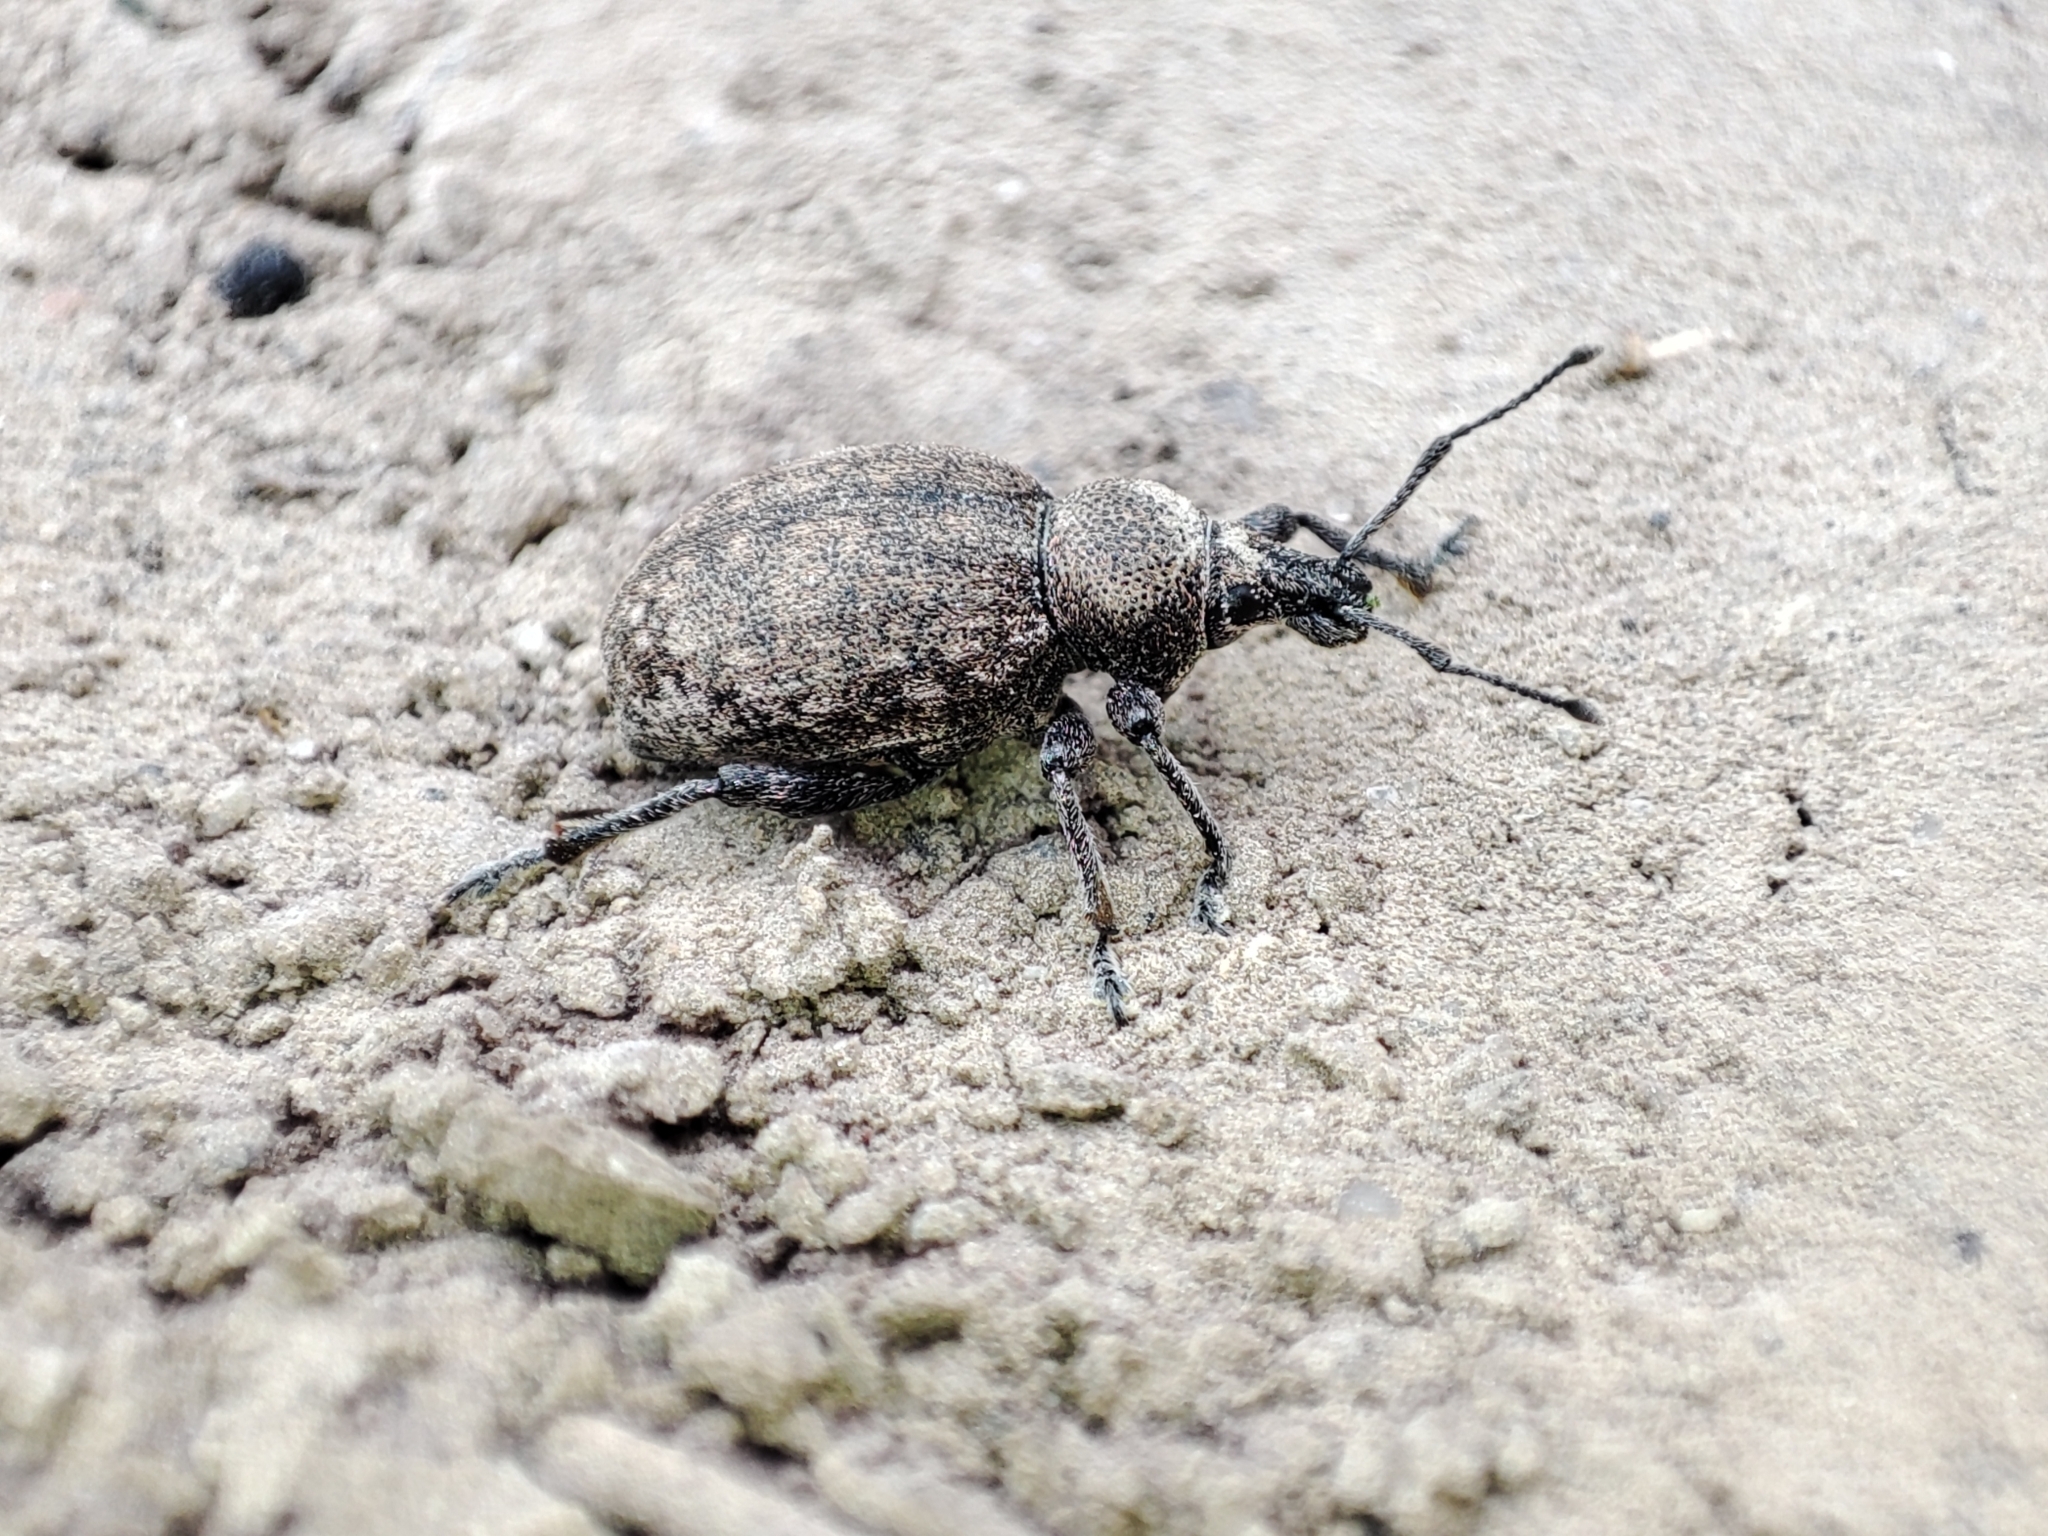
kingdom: Animalia
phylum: Arthropoda
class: Insecta
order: Coleoptera
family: Curculionidae
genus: Otiorhynchus
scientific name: Otiorhynchus ligustici
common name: Weevil
